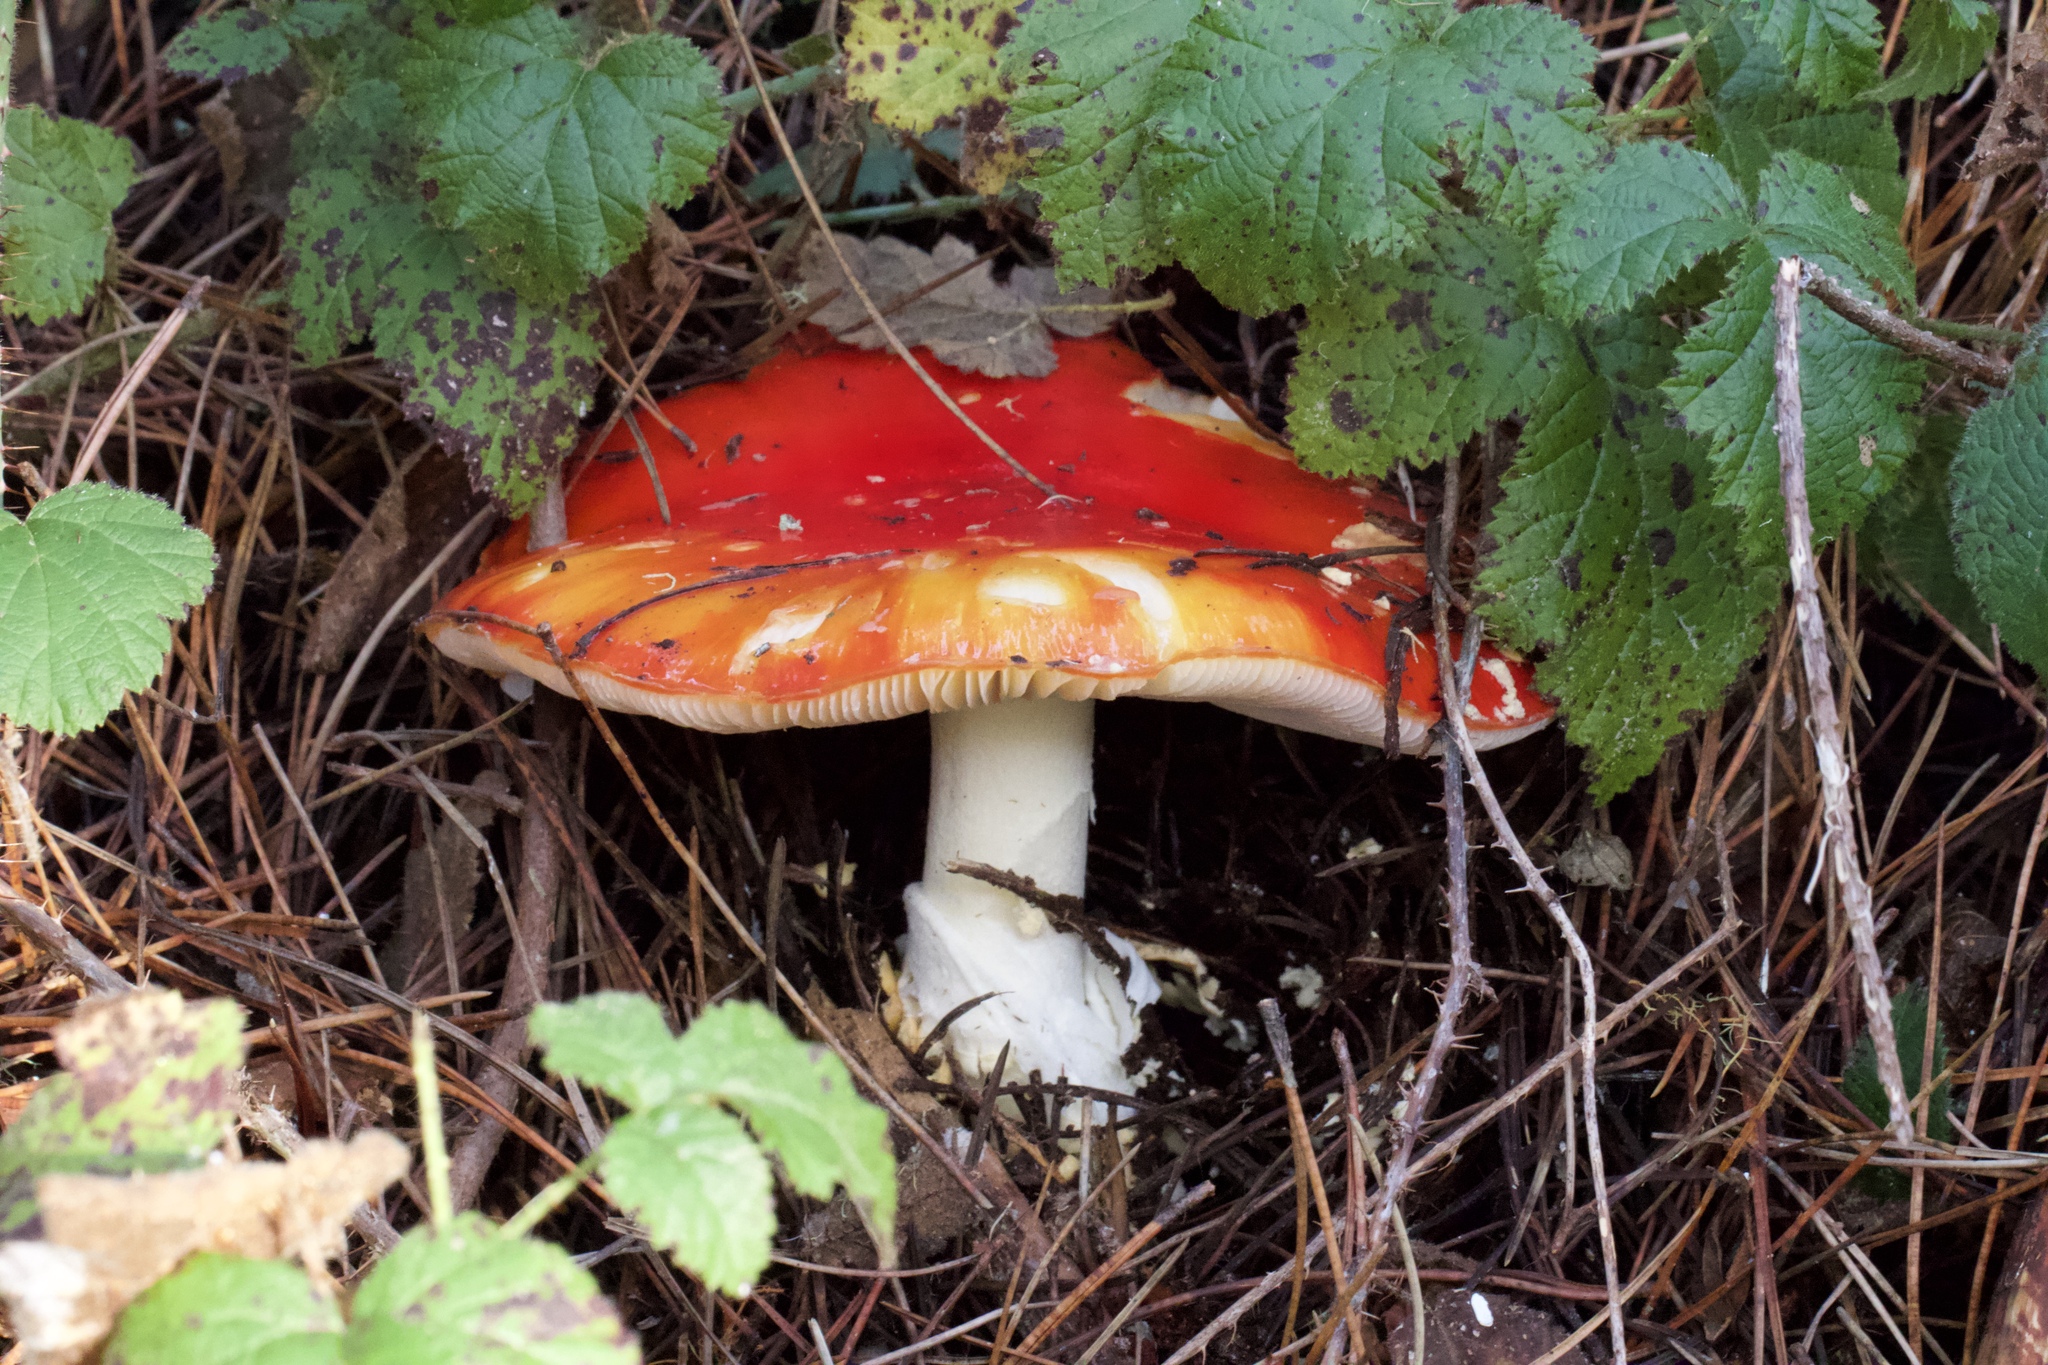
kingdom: Fungi
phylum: Basidiomycota
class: Agaricomycetes
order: Agaricales
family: Amanitaceae
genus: Amanita
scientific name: Amanita muscaria
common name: Fly agaric
